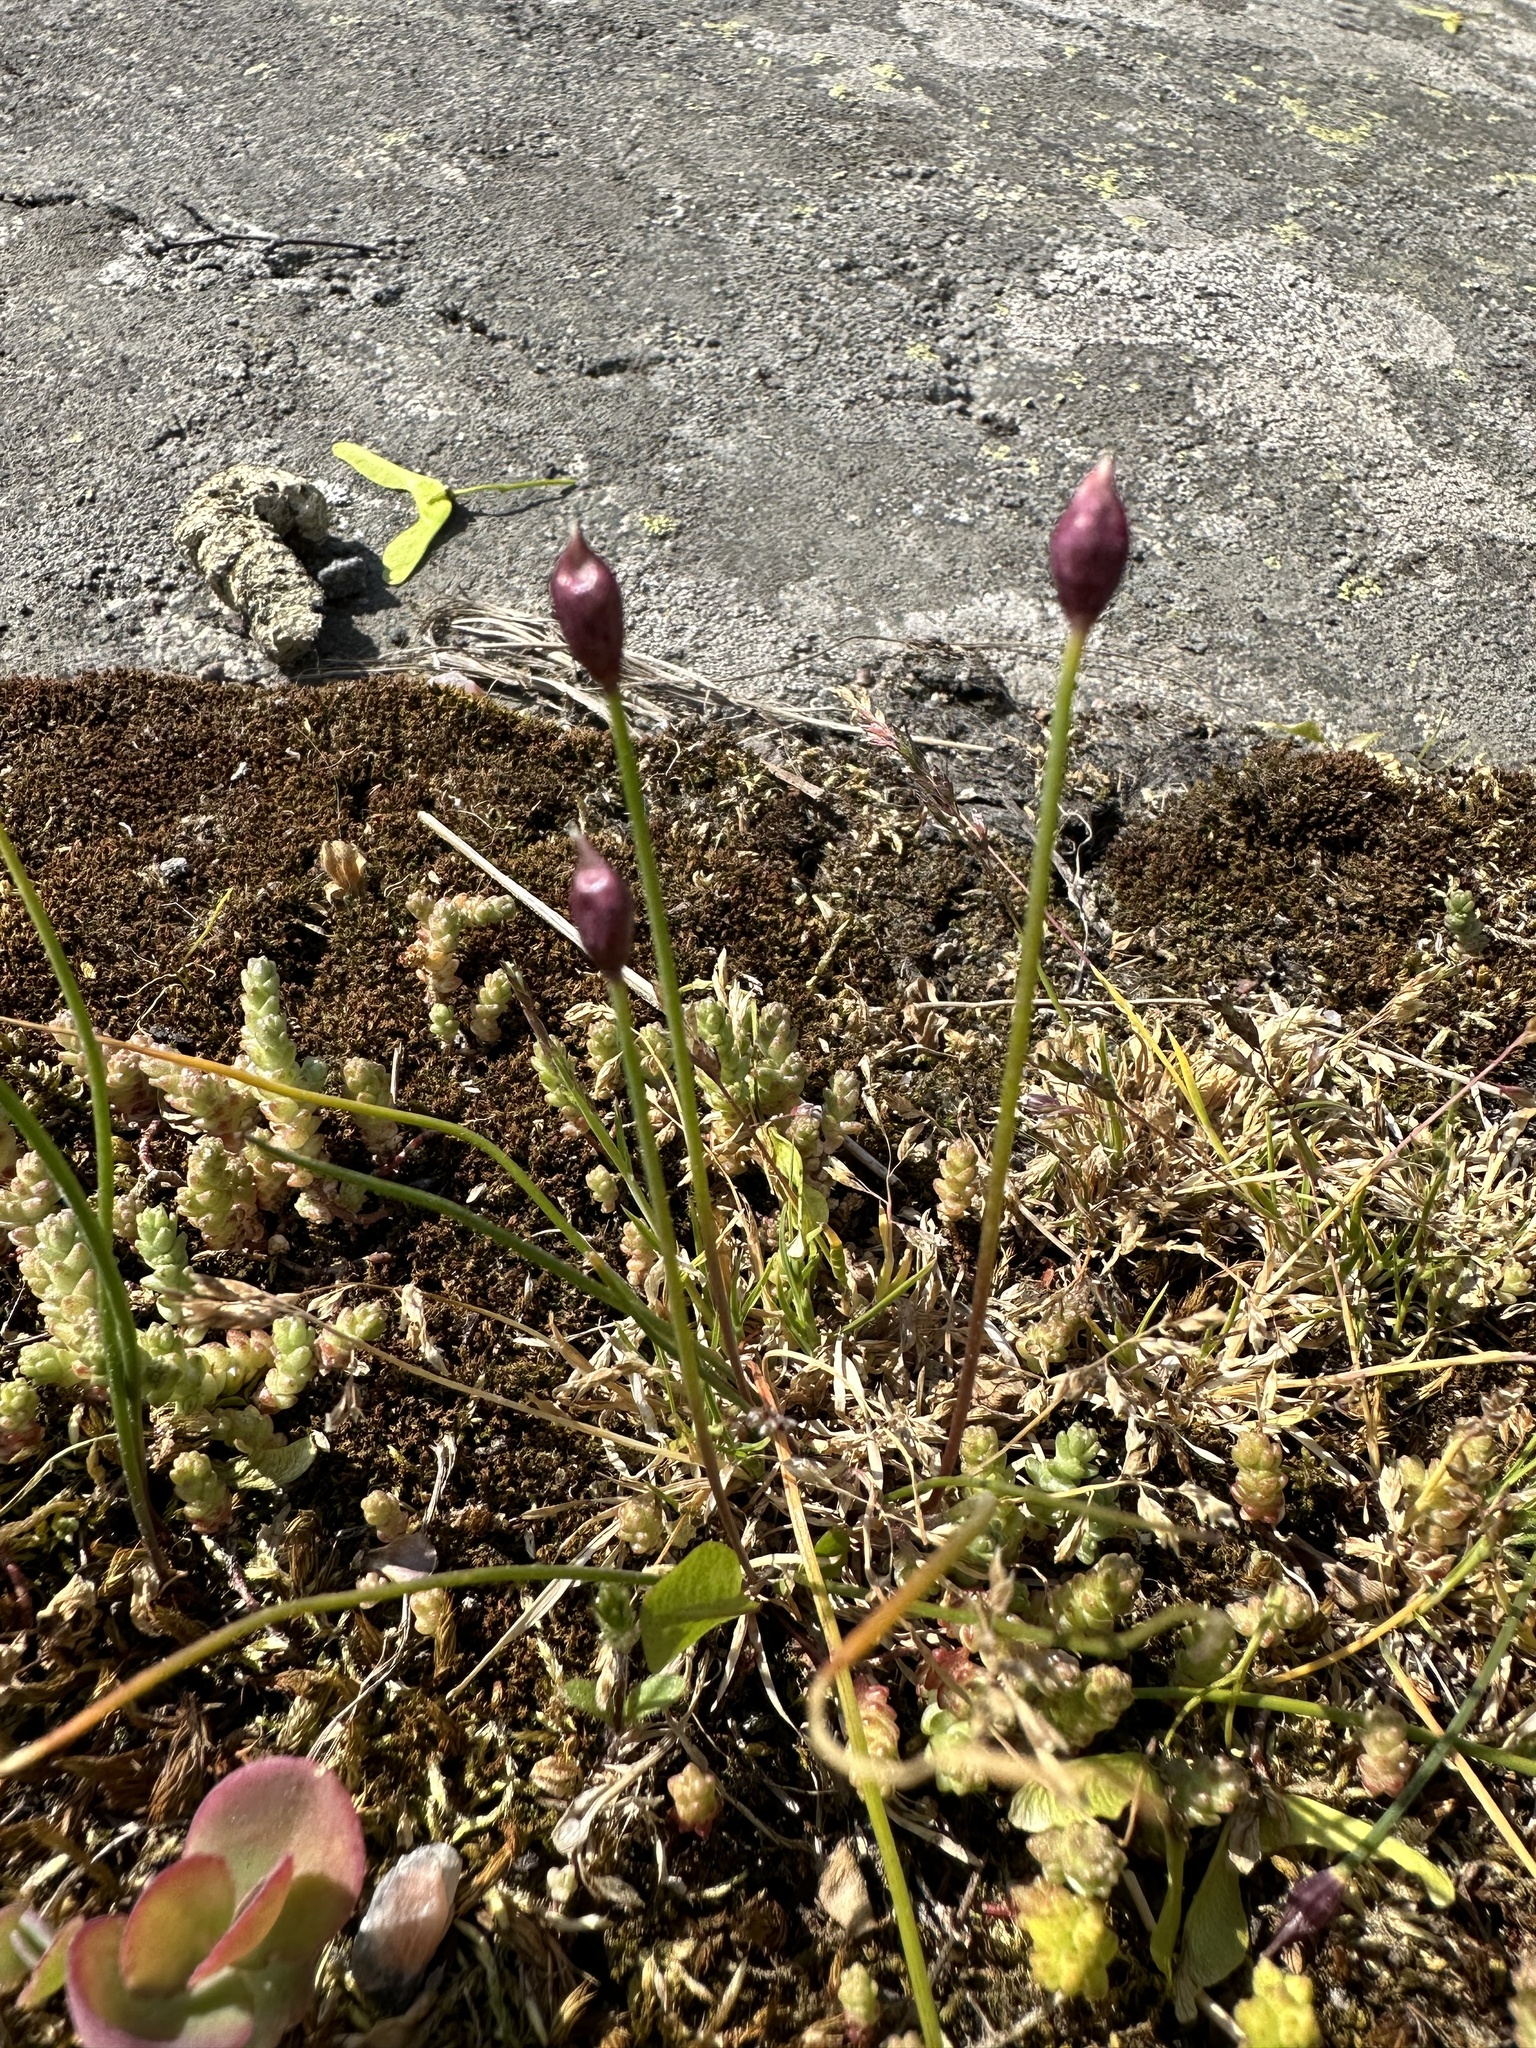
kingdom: Plantae
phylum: Tracheophyta
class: Liliopsida
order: Asparagales
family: Amaryllidaceae
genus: Allium
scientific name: Allium schoenoprasum
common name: Chives
